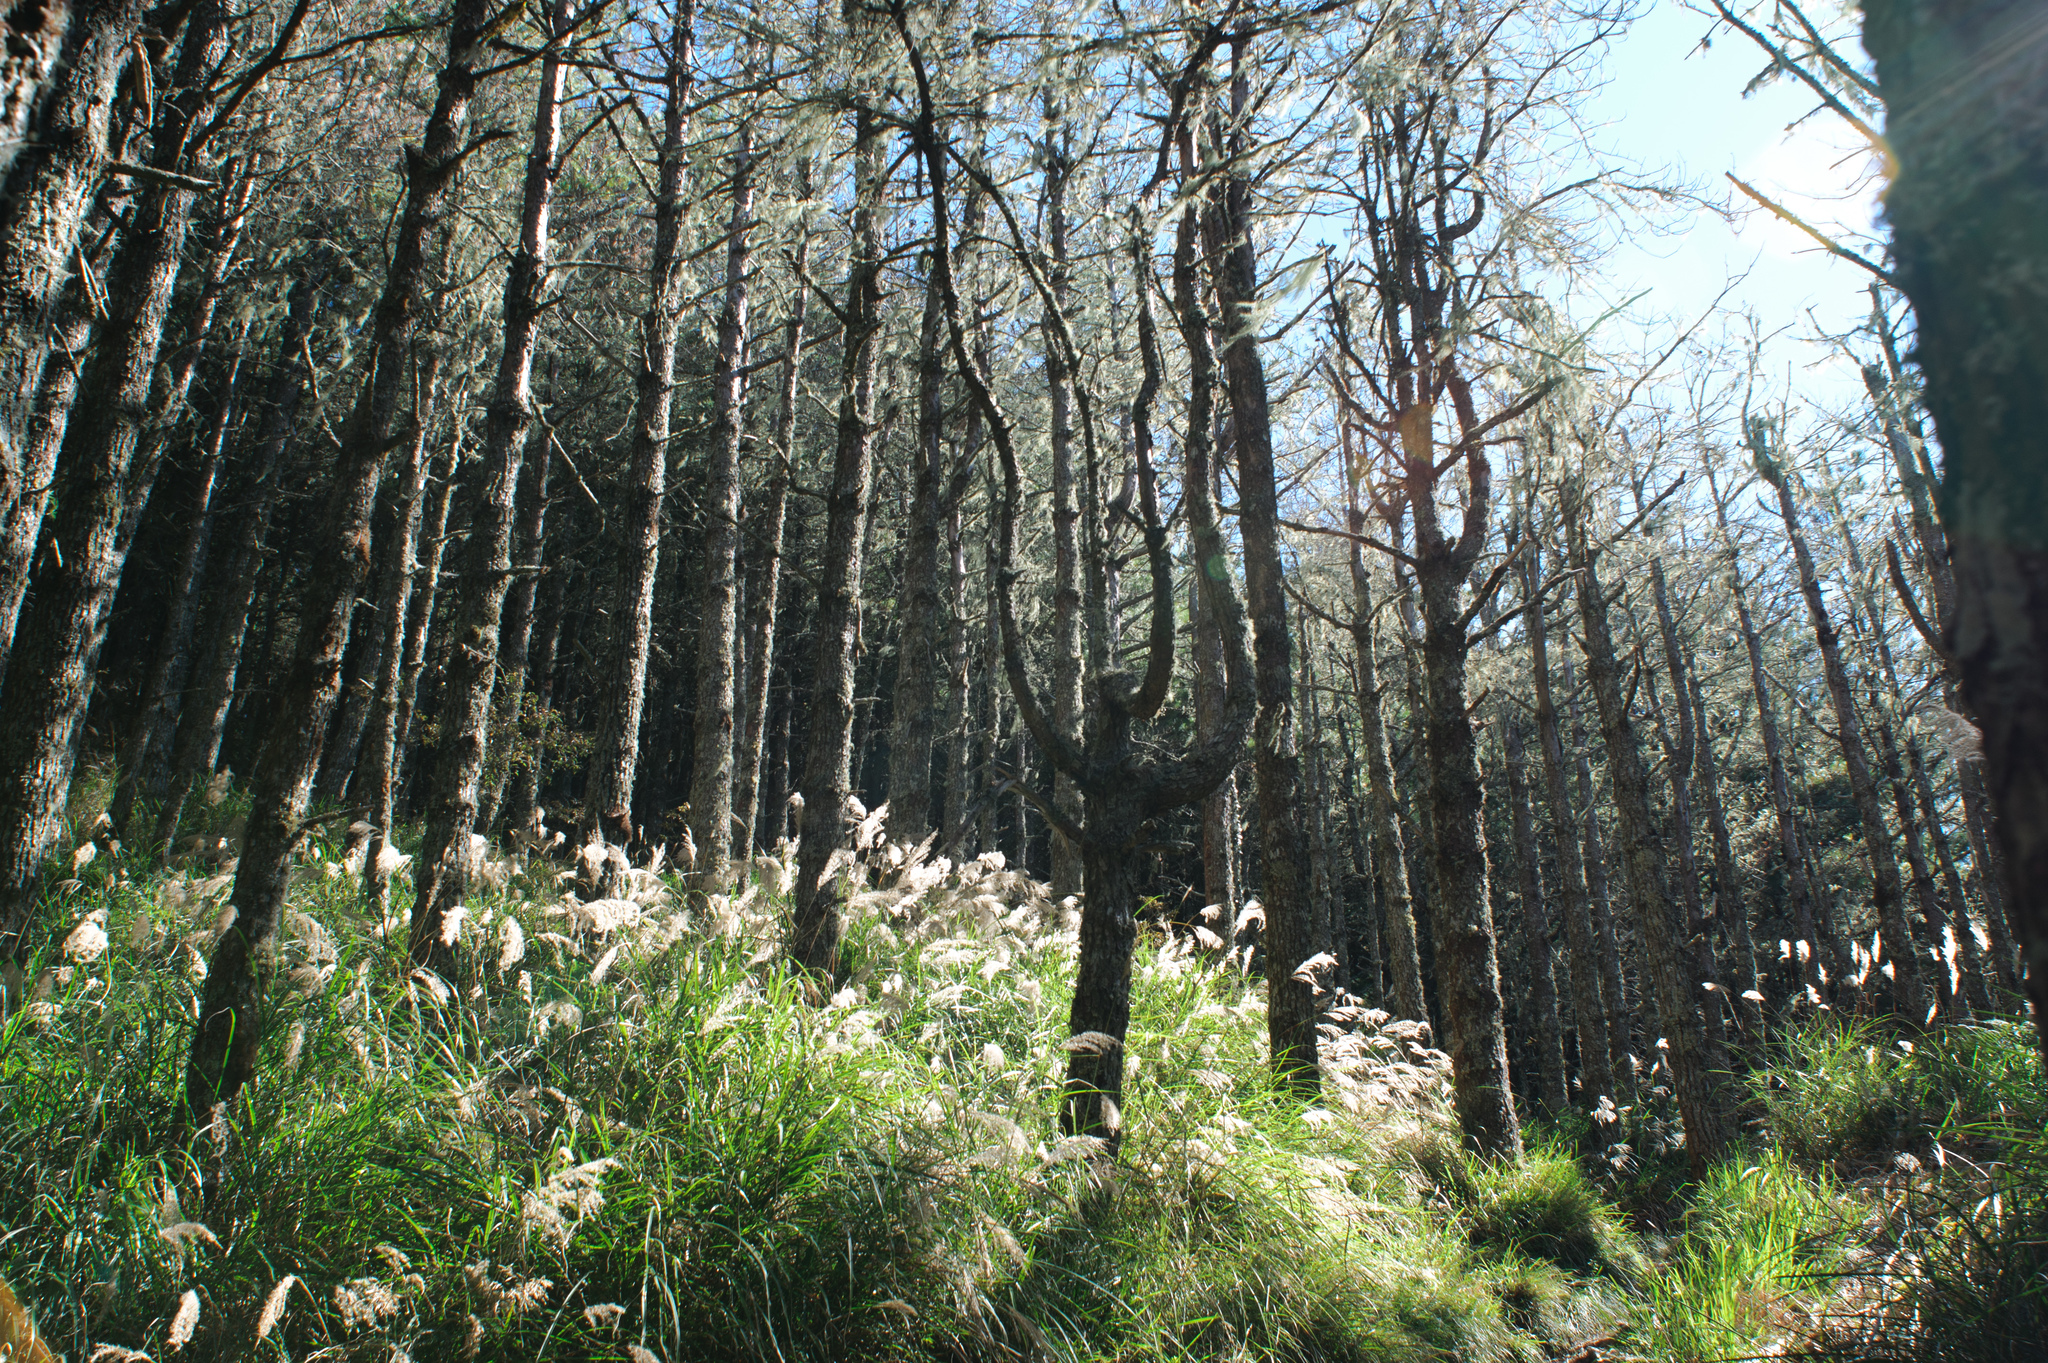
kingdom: Plantae
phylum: Tracheophyta
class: Pinopsida
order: Pinales
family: Pinaceae
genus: Pinus
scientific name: Pinus taiwanensis
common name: Formosa pine
